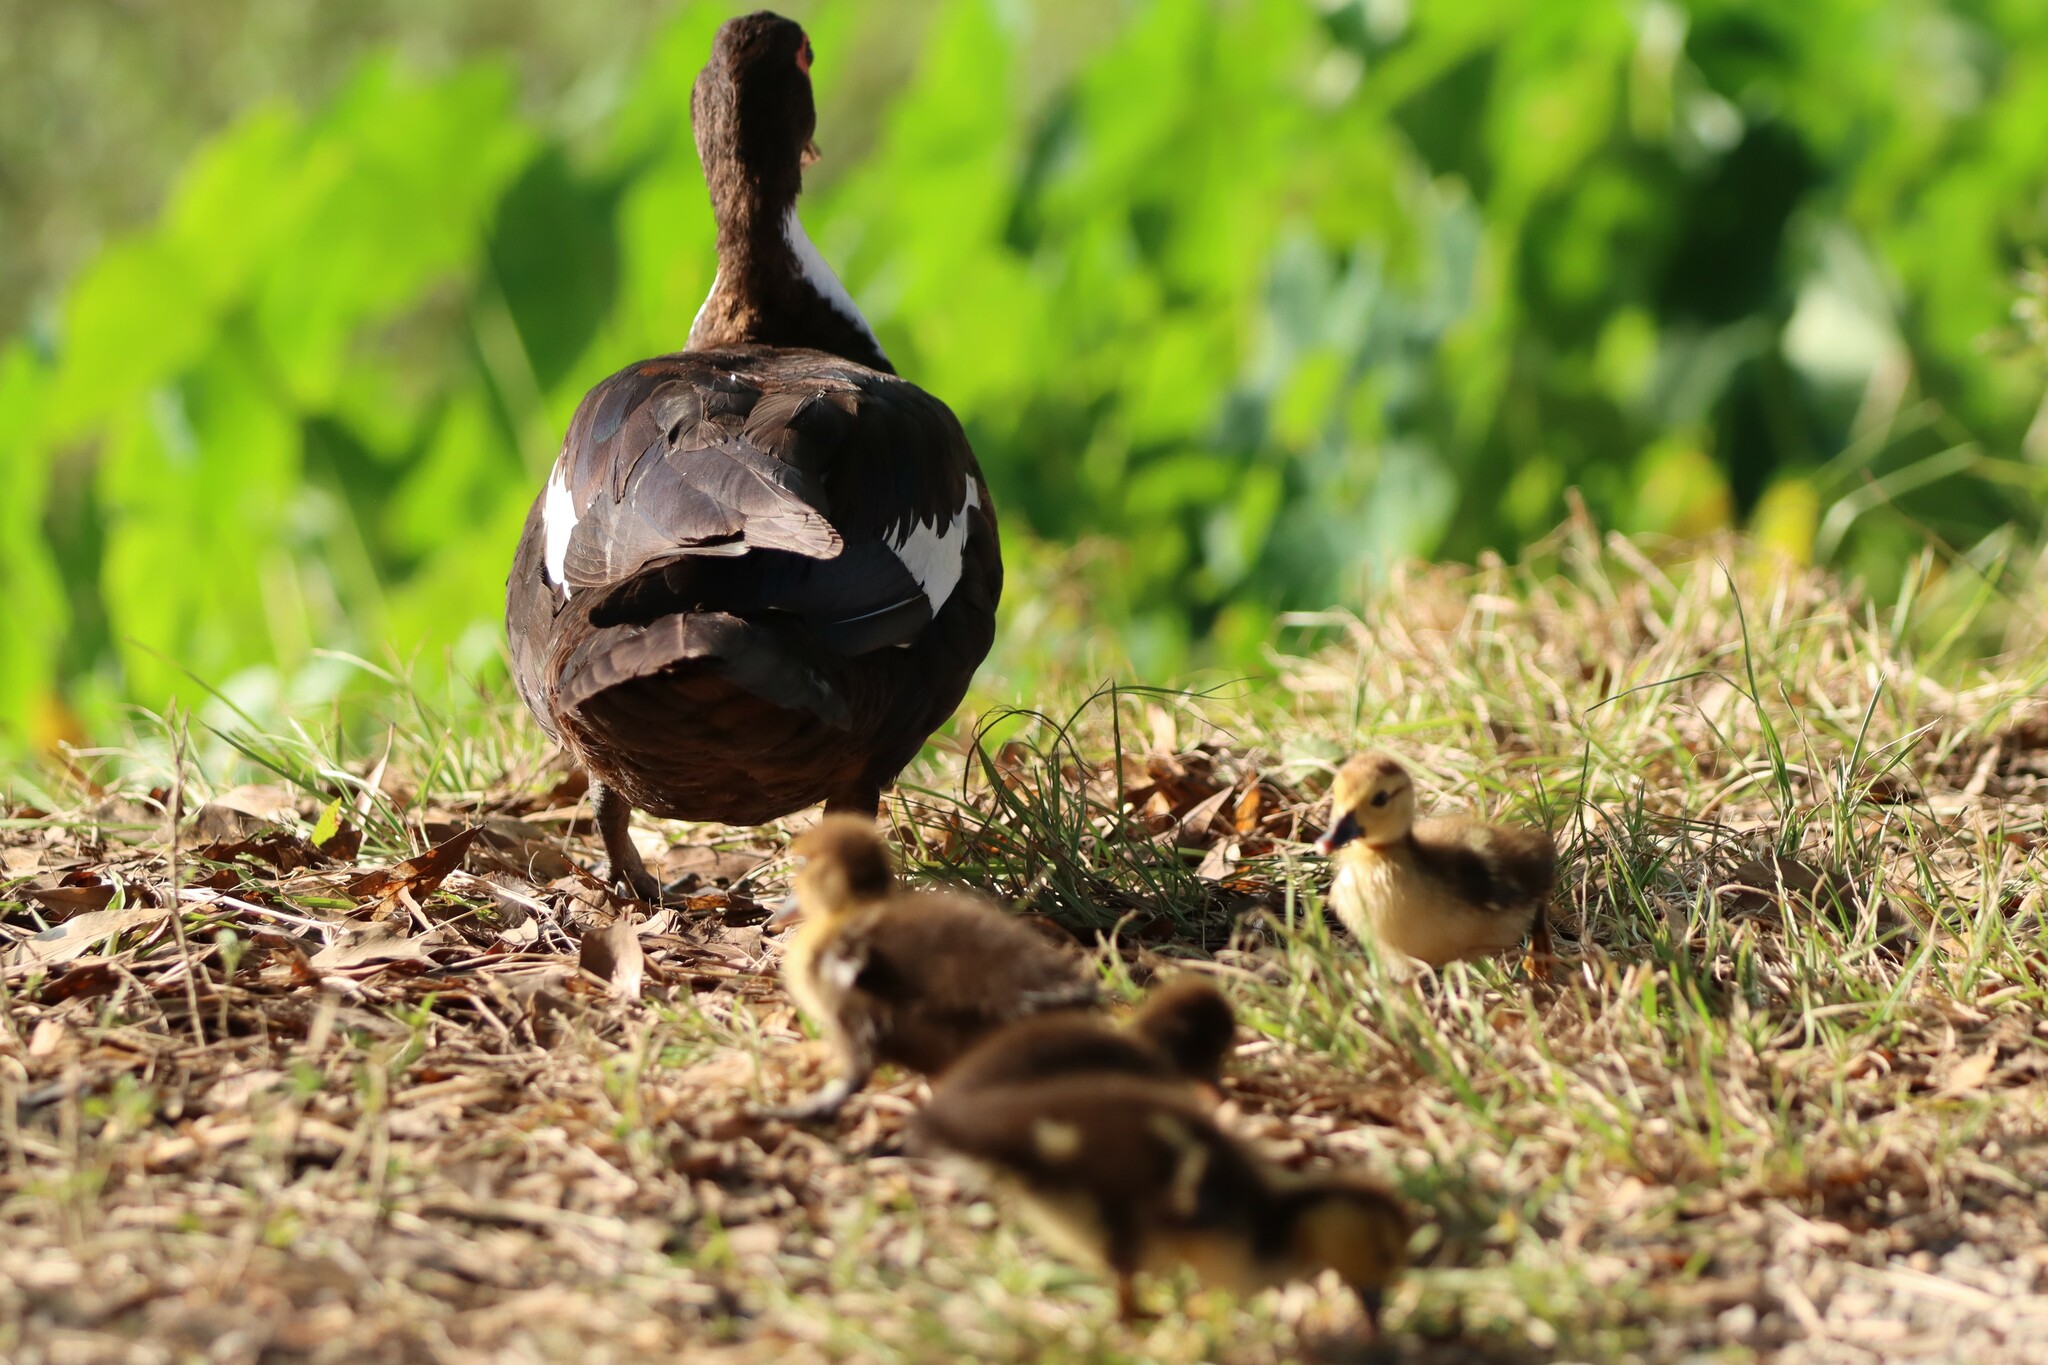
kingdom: Animalia
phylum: Chordata
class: Aves
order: Anseriformes
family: Anatidae
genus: Cairina
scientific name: Cairina moschata
